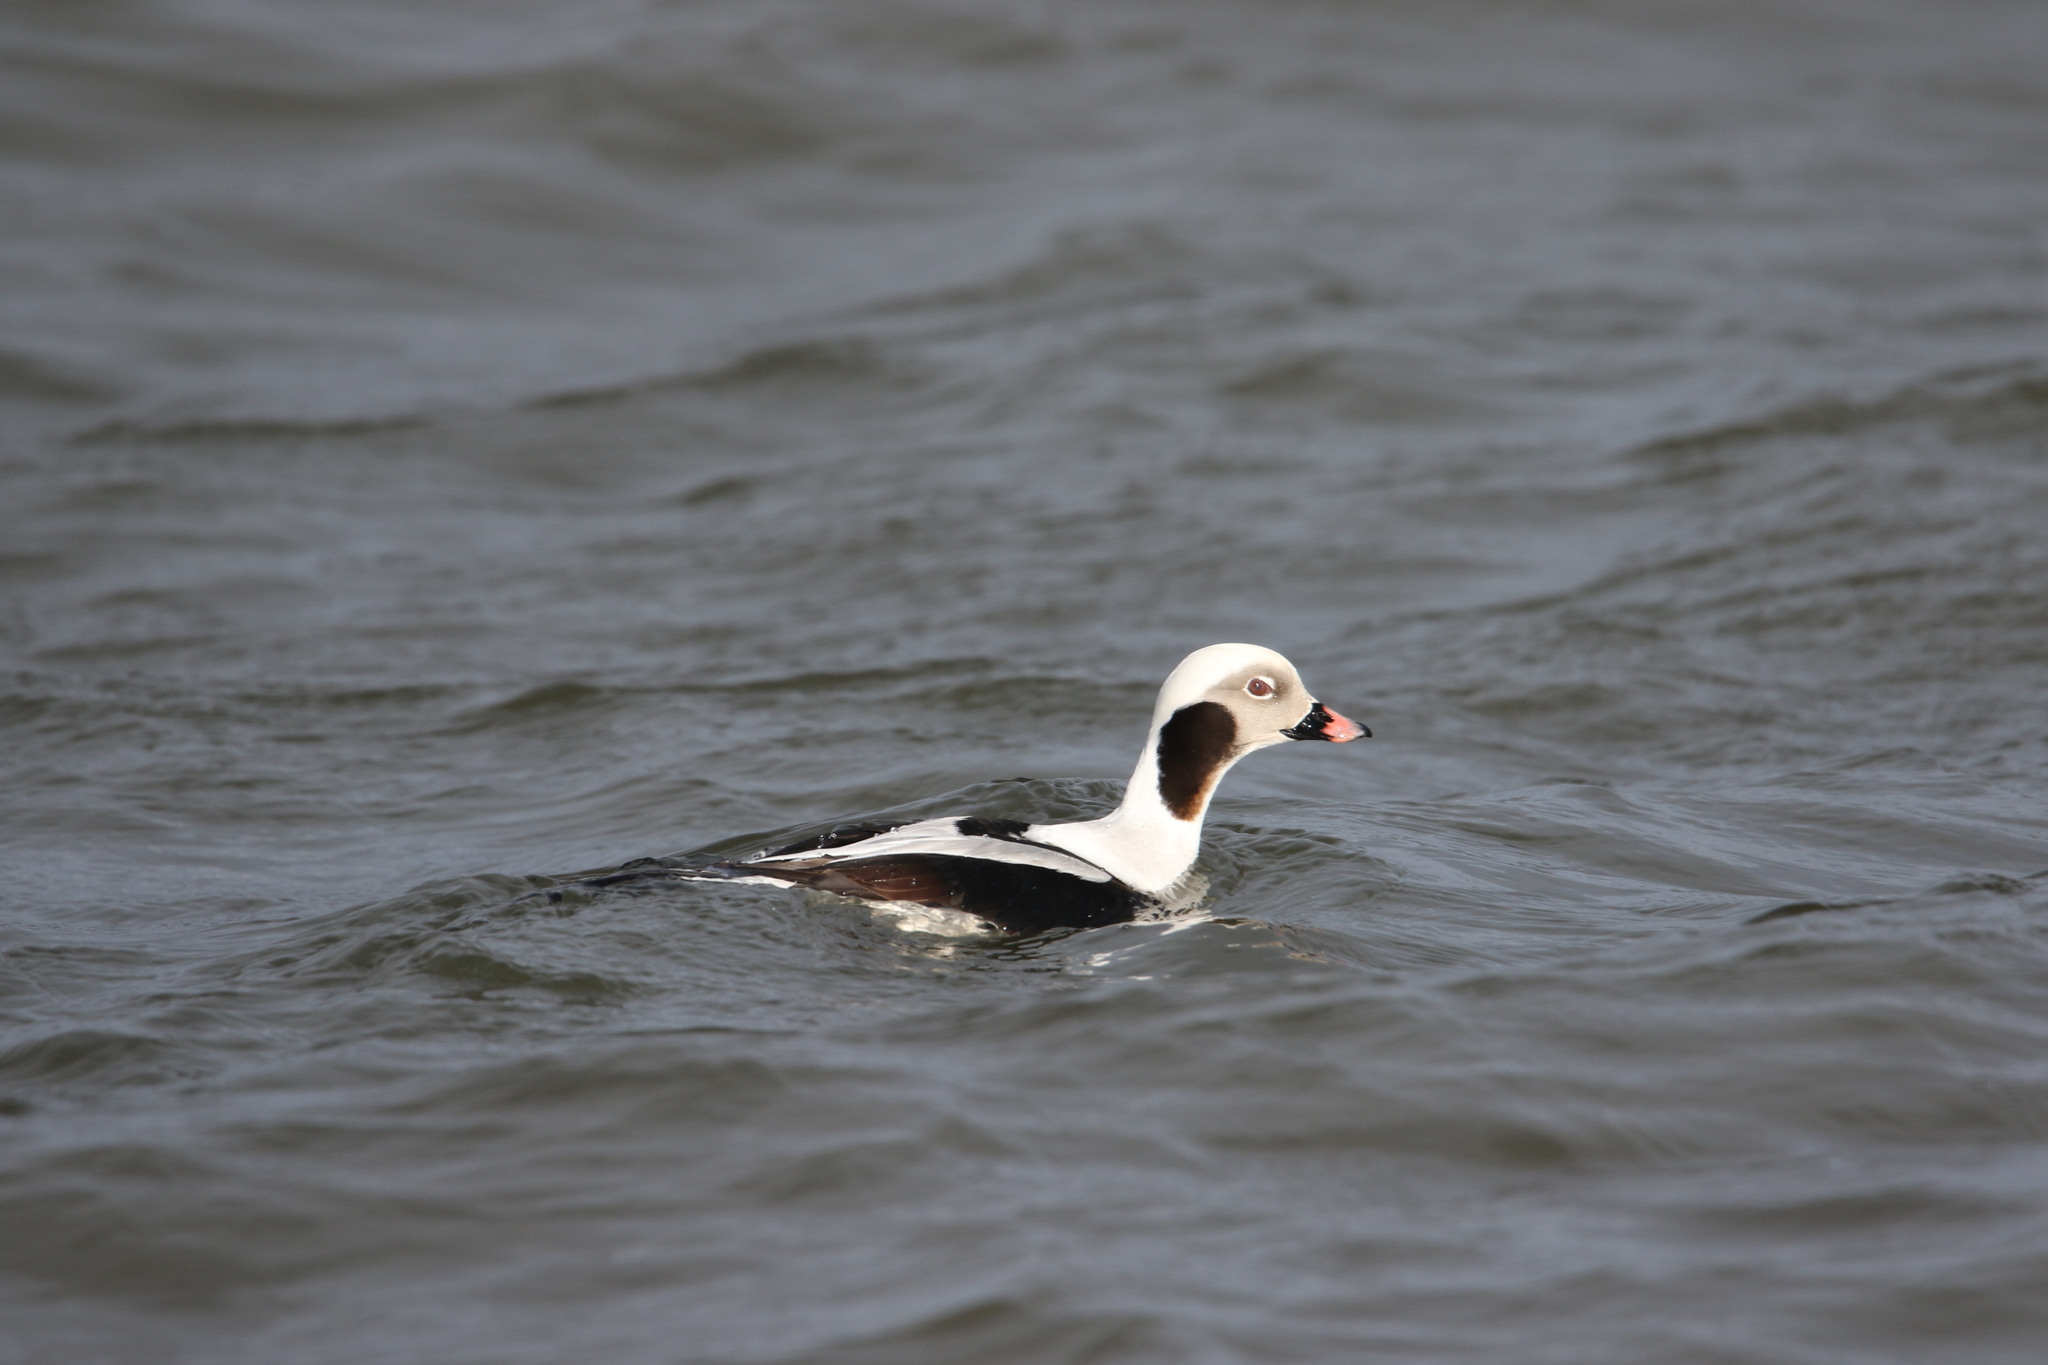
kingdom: Animalia
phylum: Chordata
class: Aves
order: Anseriformes
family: Anatidae
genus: Clangula
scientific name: Clangula hyemalis
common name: Long-tailed duck
